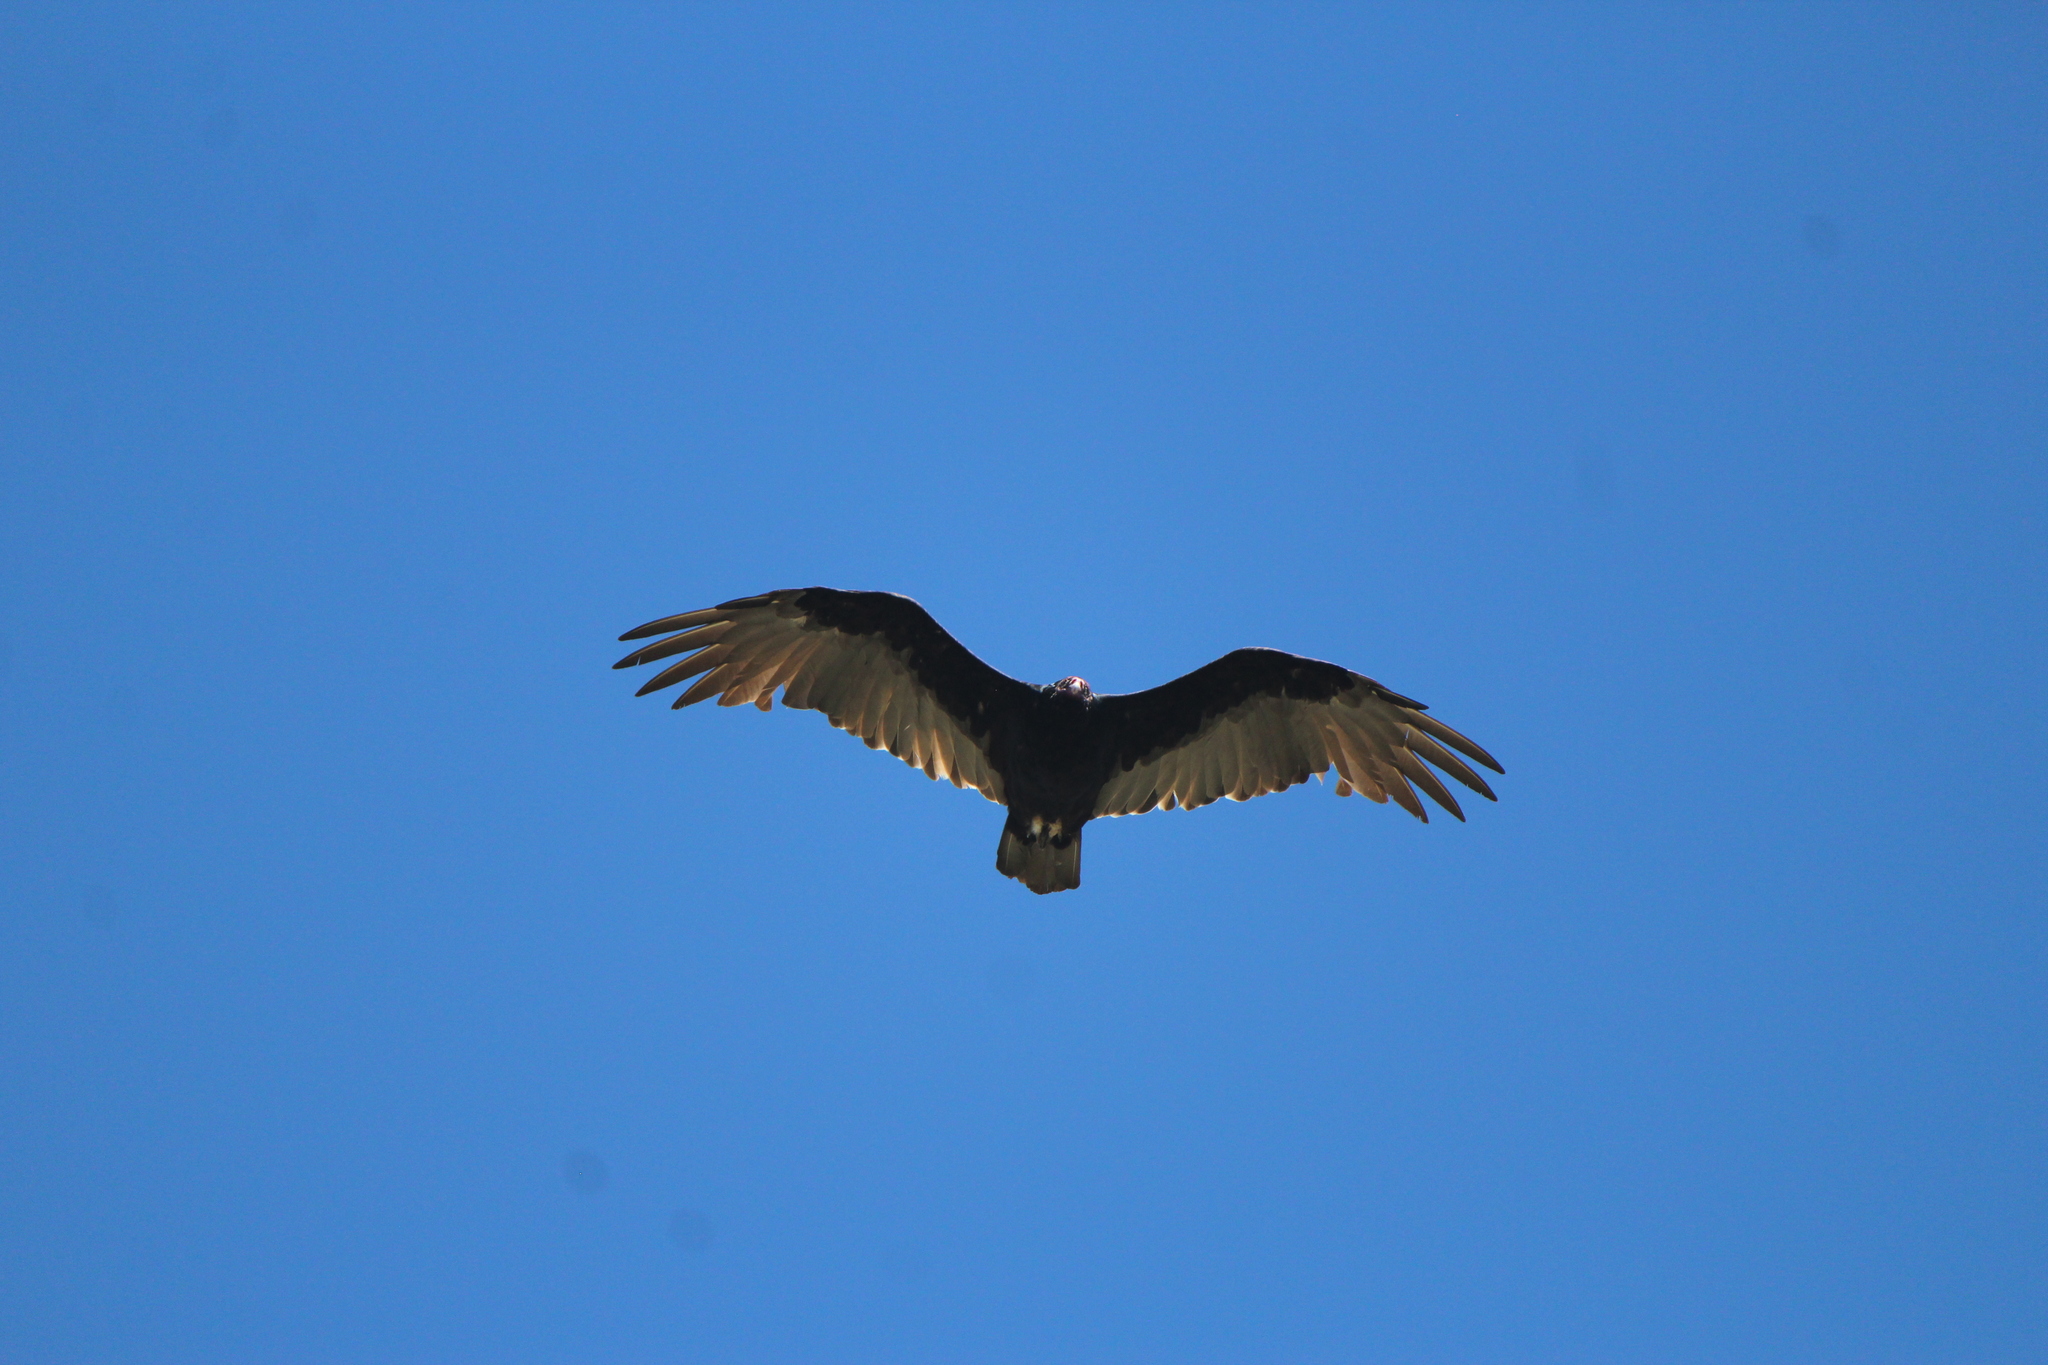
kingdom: Animalia
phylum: Chordata
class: Aves
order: Accipitriformes
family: Cathartidae
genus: Cathartes
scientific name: Cathartes aura
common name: Turkey vulture
